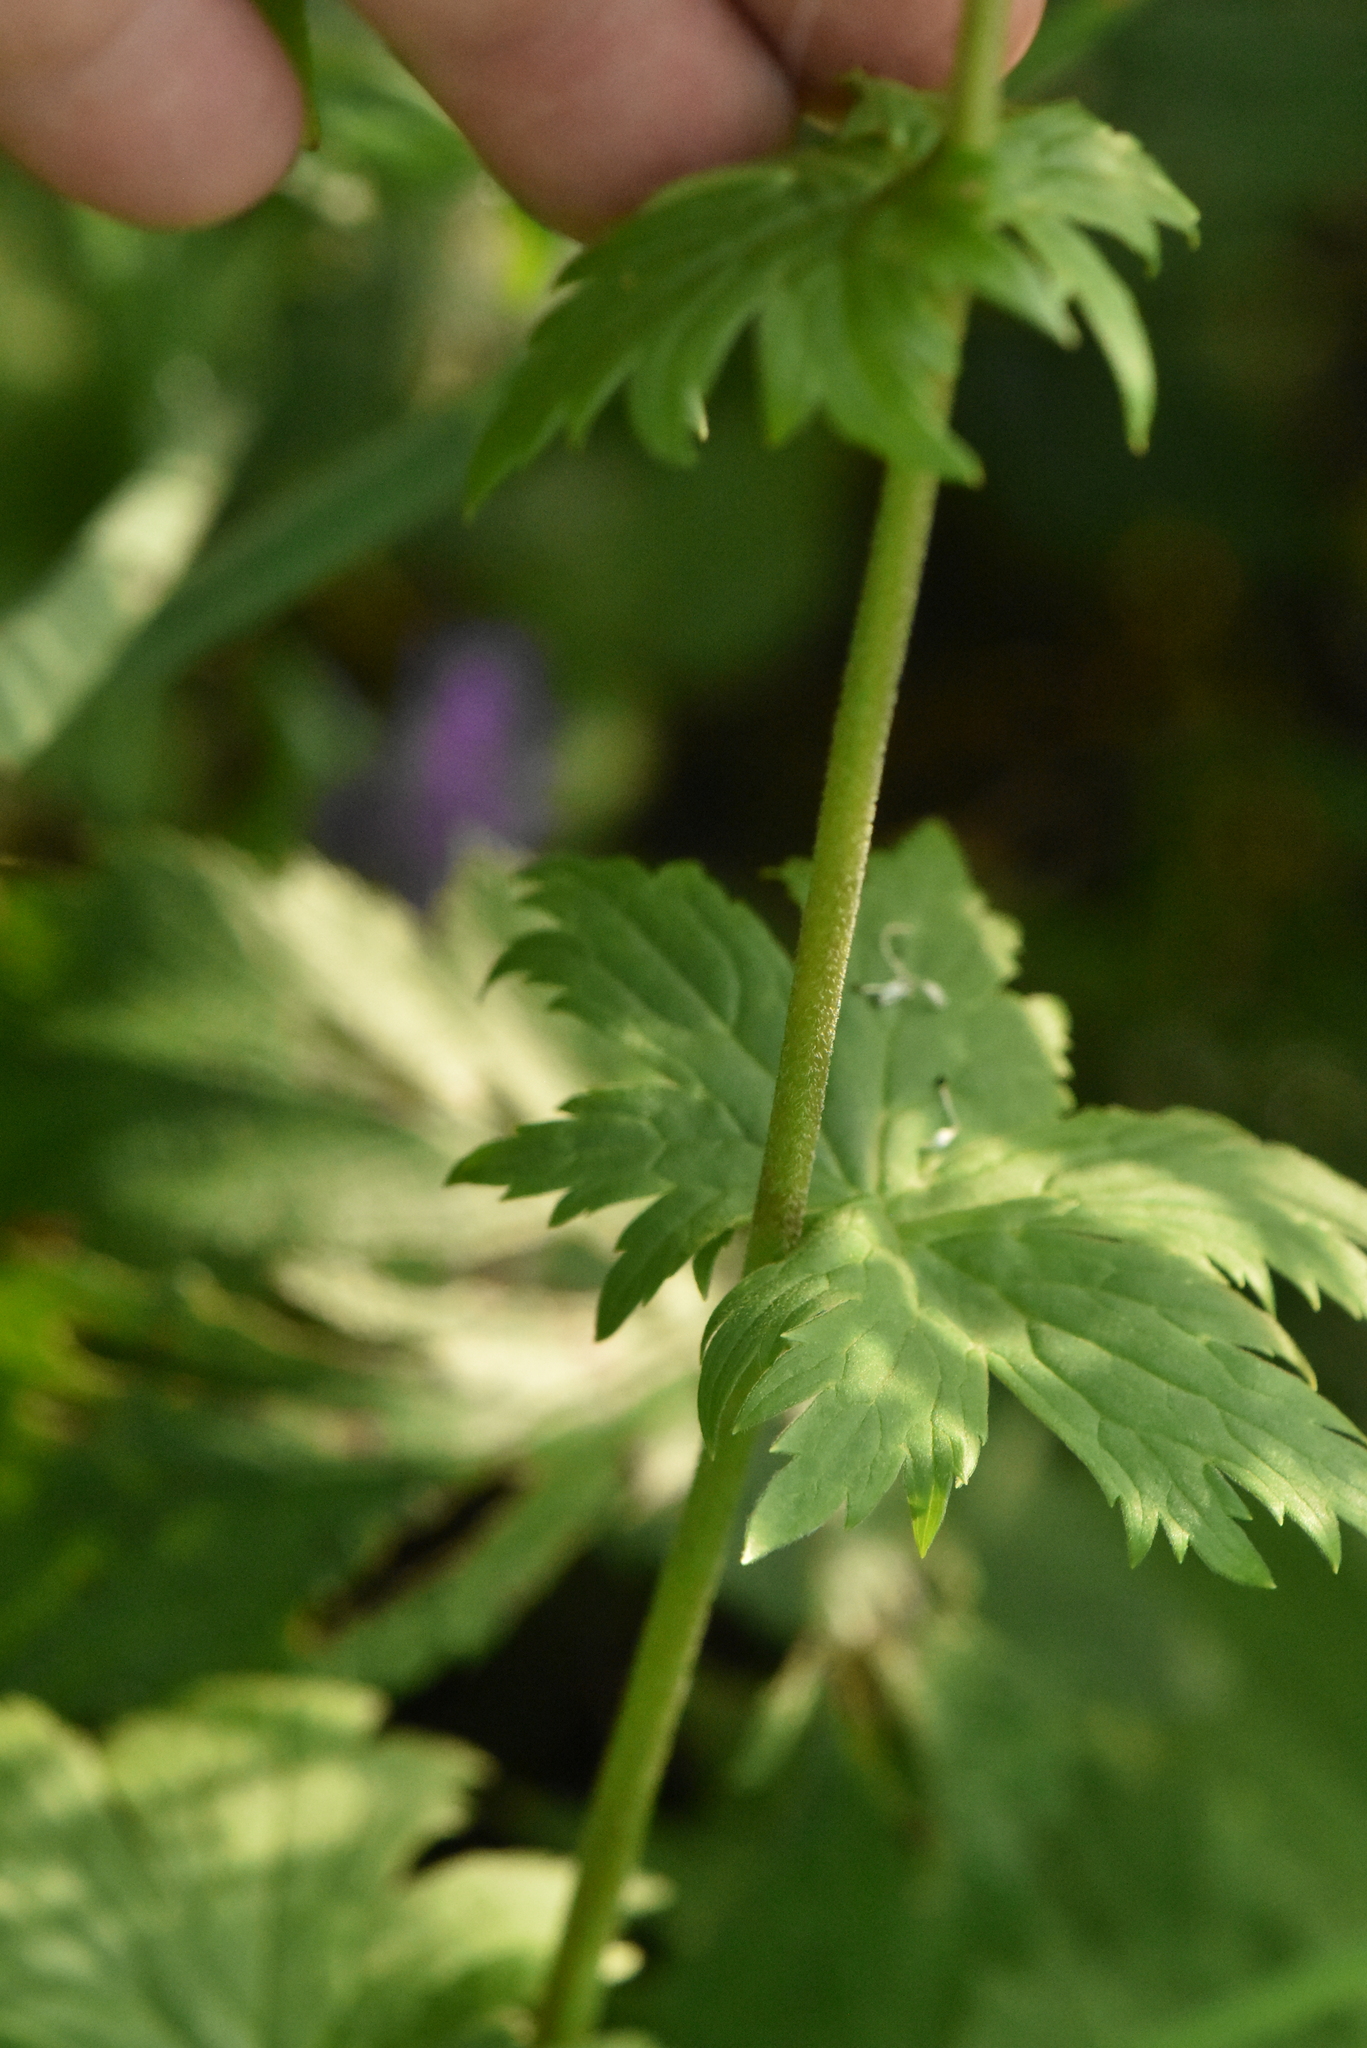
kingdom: Plantae
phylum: Tracheophyta
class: Magnoliopsida
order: Ranunculales
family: Ranunculaceae
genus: Aconitum
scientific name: Aconitum septentrionale
